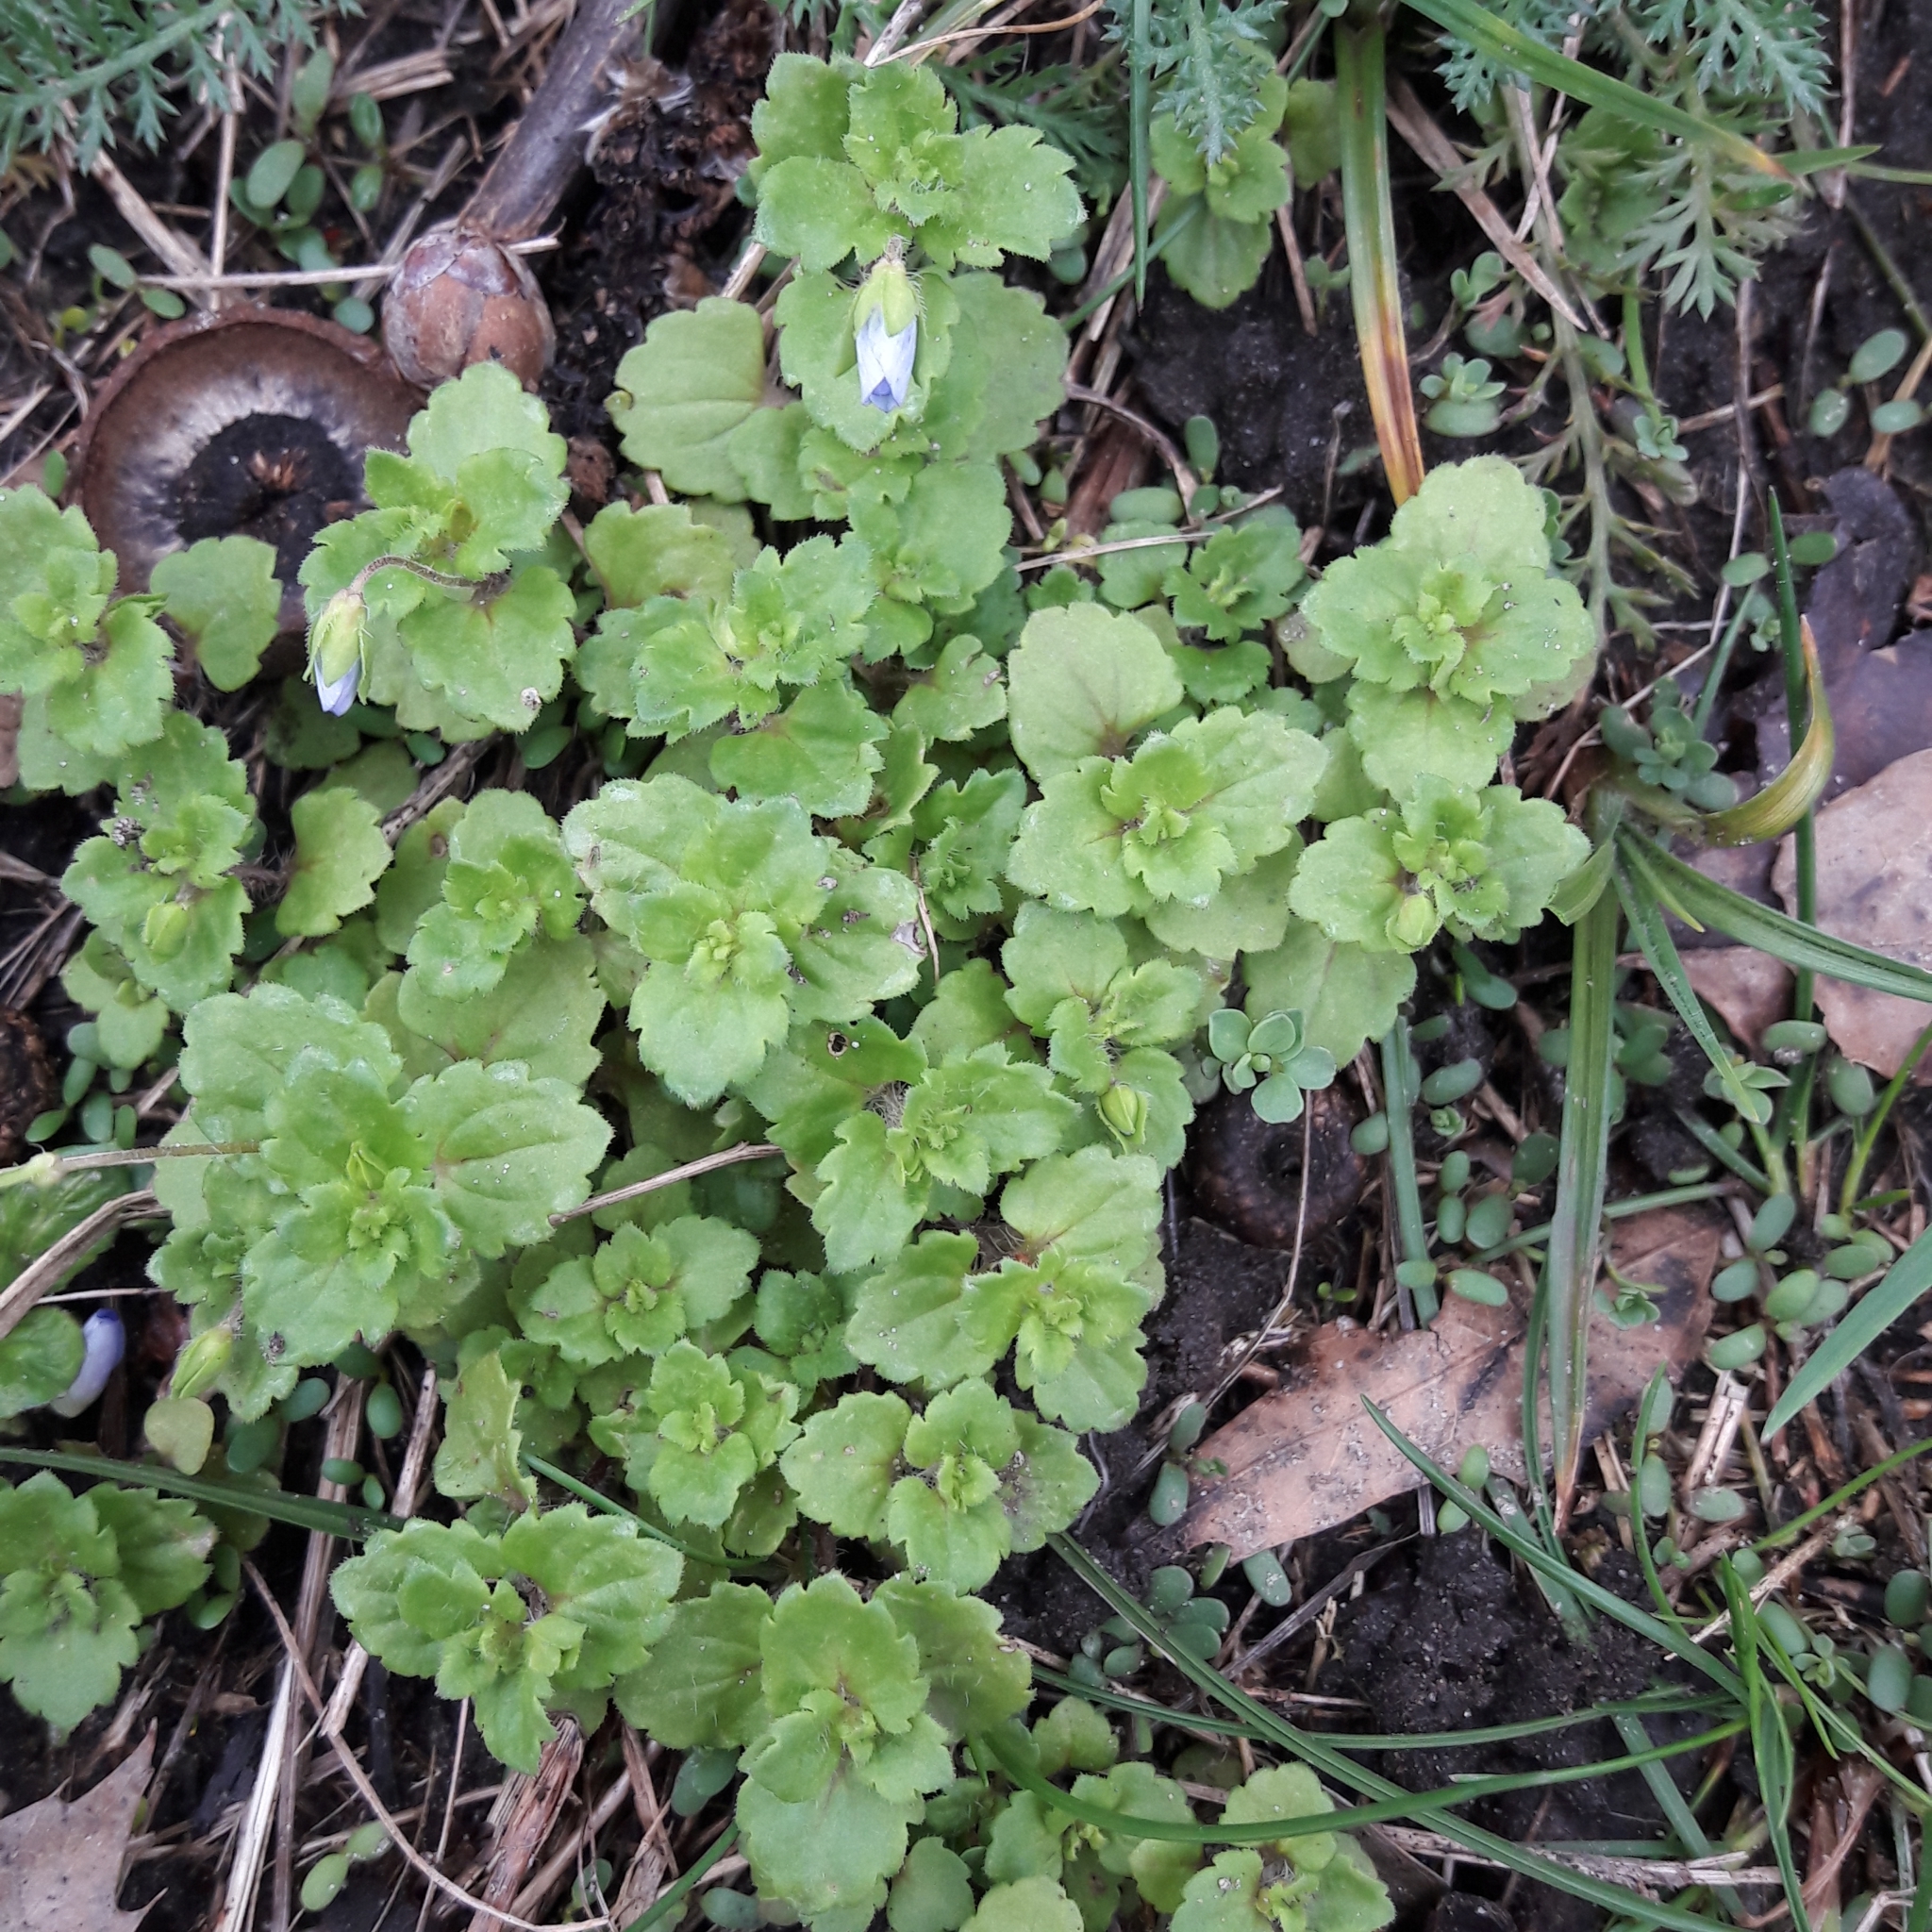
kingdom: Plantae
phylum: Tracheophyta
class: Magnoliopsida
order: Lamiales
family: Plantaginaceae
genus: Veronica
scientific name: Veronica persica
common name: Common field-speedwell
